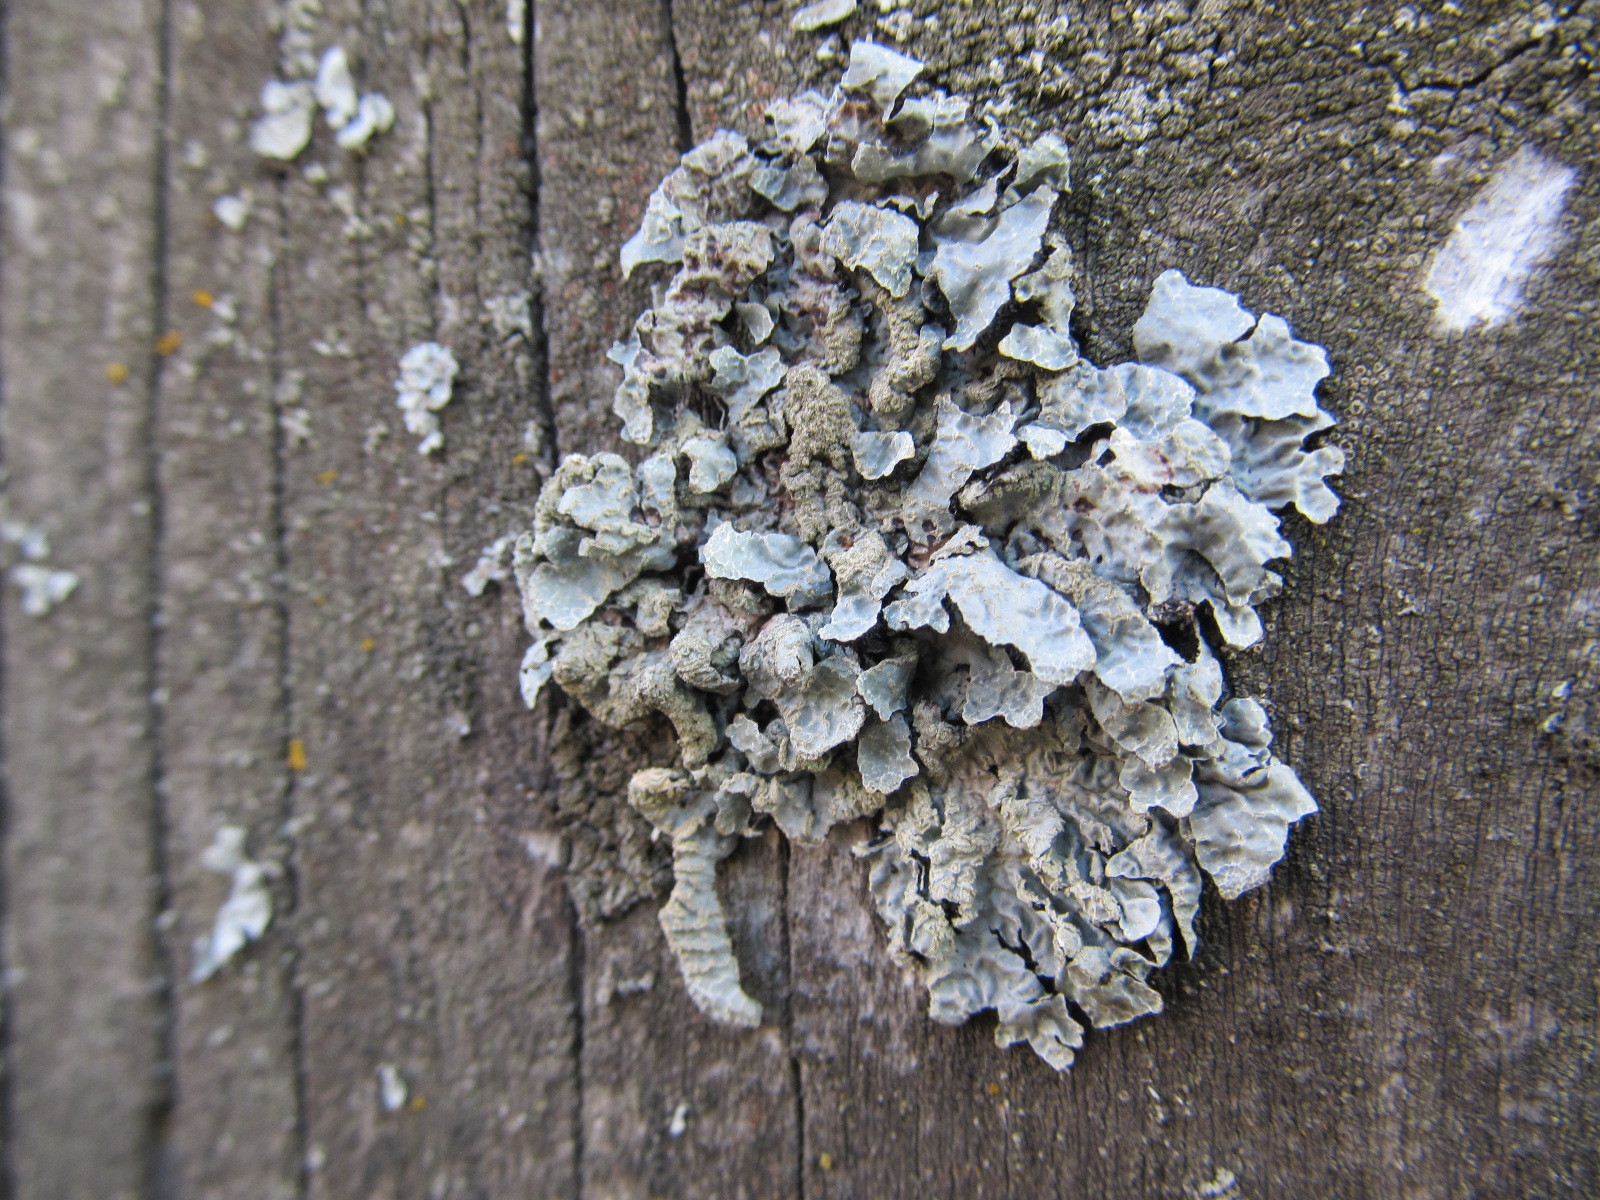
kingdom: Fungi
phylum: Ascomycota
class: Lecanoromycetes
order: Lecanorales
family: Parmeliaceae
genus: Parmelia
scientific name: Parmelia sulcata
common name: Netted shield lichen
